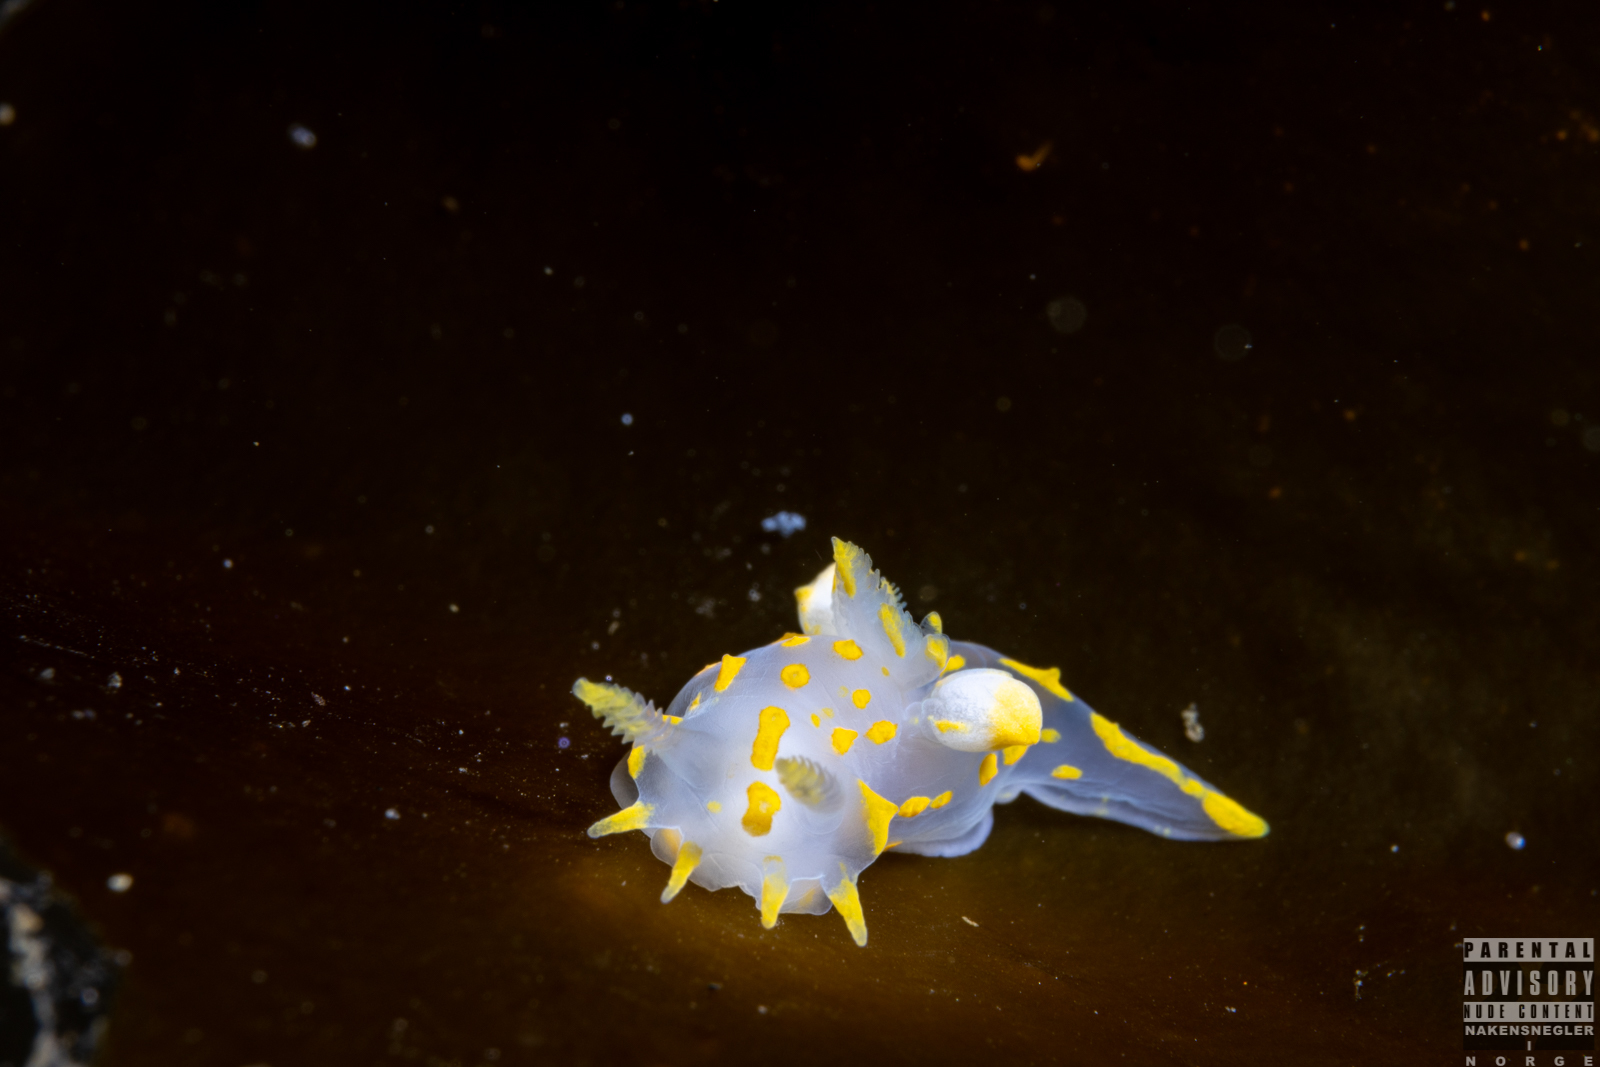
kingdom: Animalia
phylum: Mollusca
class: Gastropoda
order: Nudibranchia
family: Polyceridae
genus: Polycera
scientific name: Polycera quadrilineata
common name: Four-striped polycera
